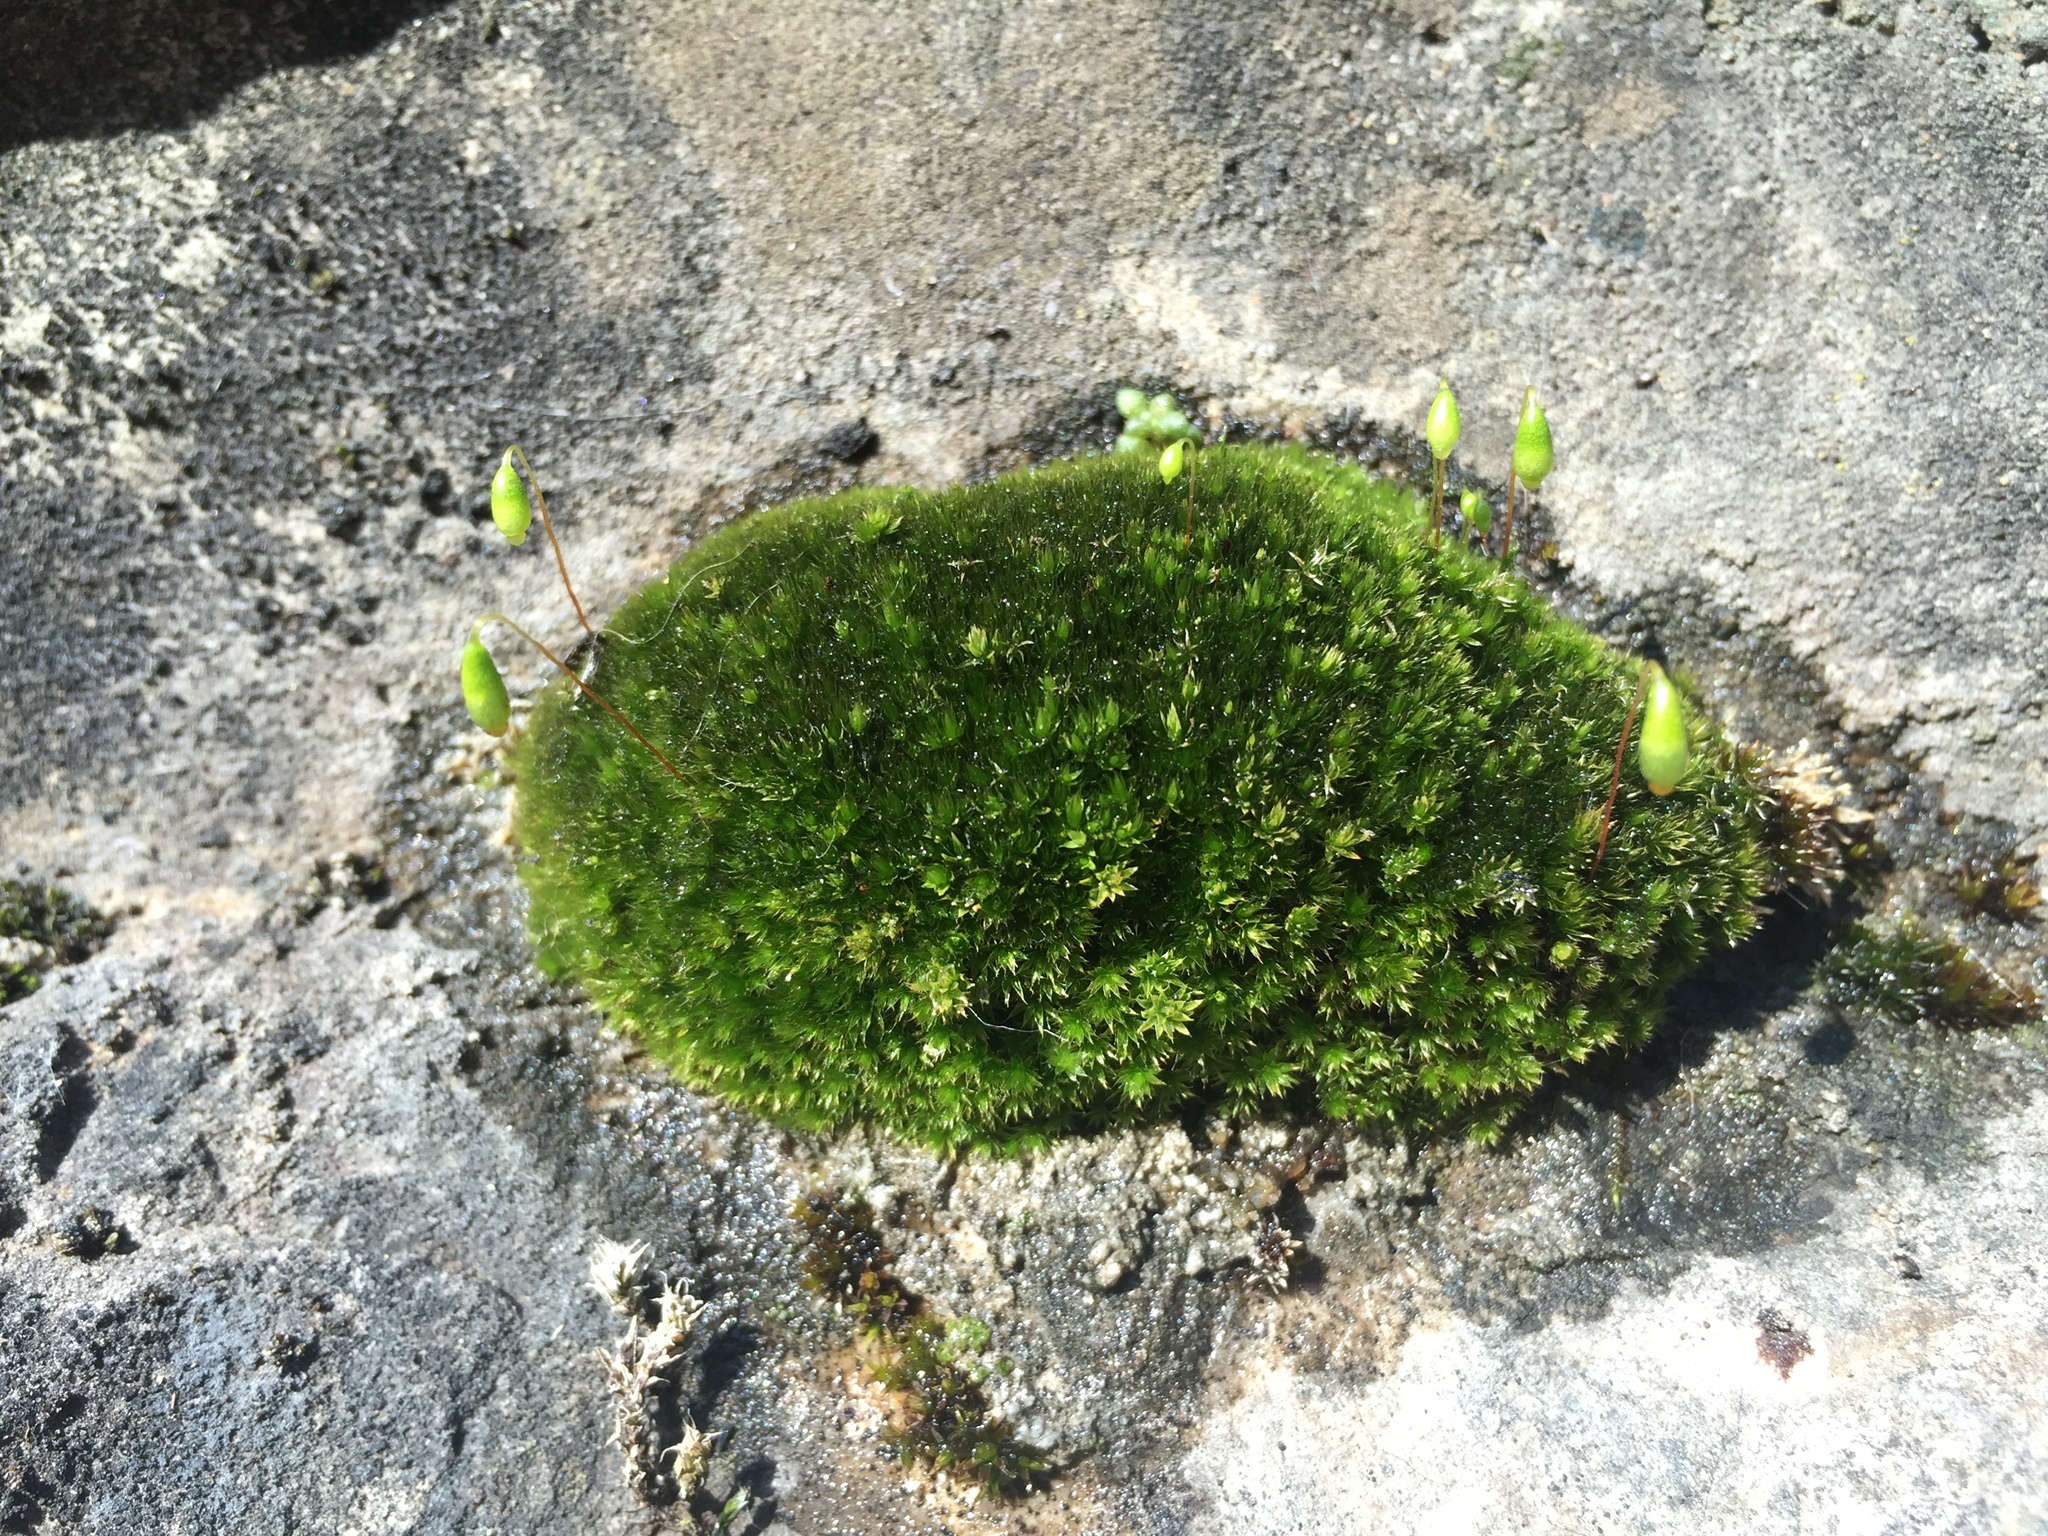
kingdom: Plantae
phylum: Bryophyta
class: Bryopsida
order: Bryales
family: Bryaceae
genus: Rosulabryum
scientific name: Rosulabryum capillare
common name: Capillary thread-moss
